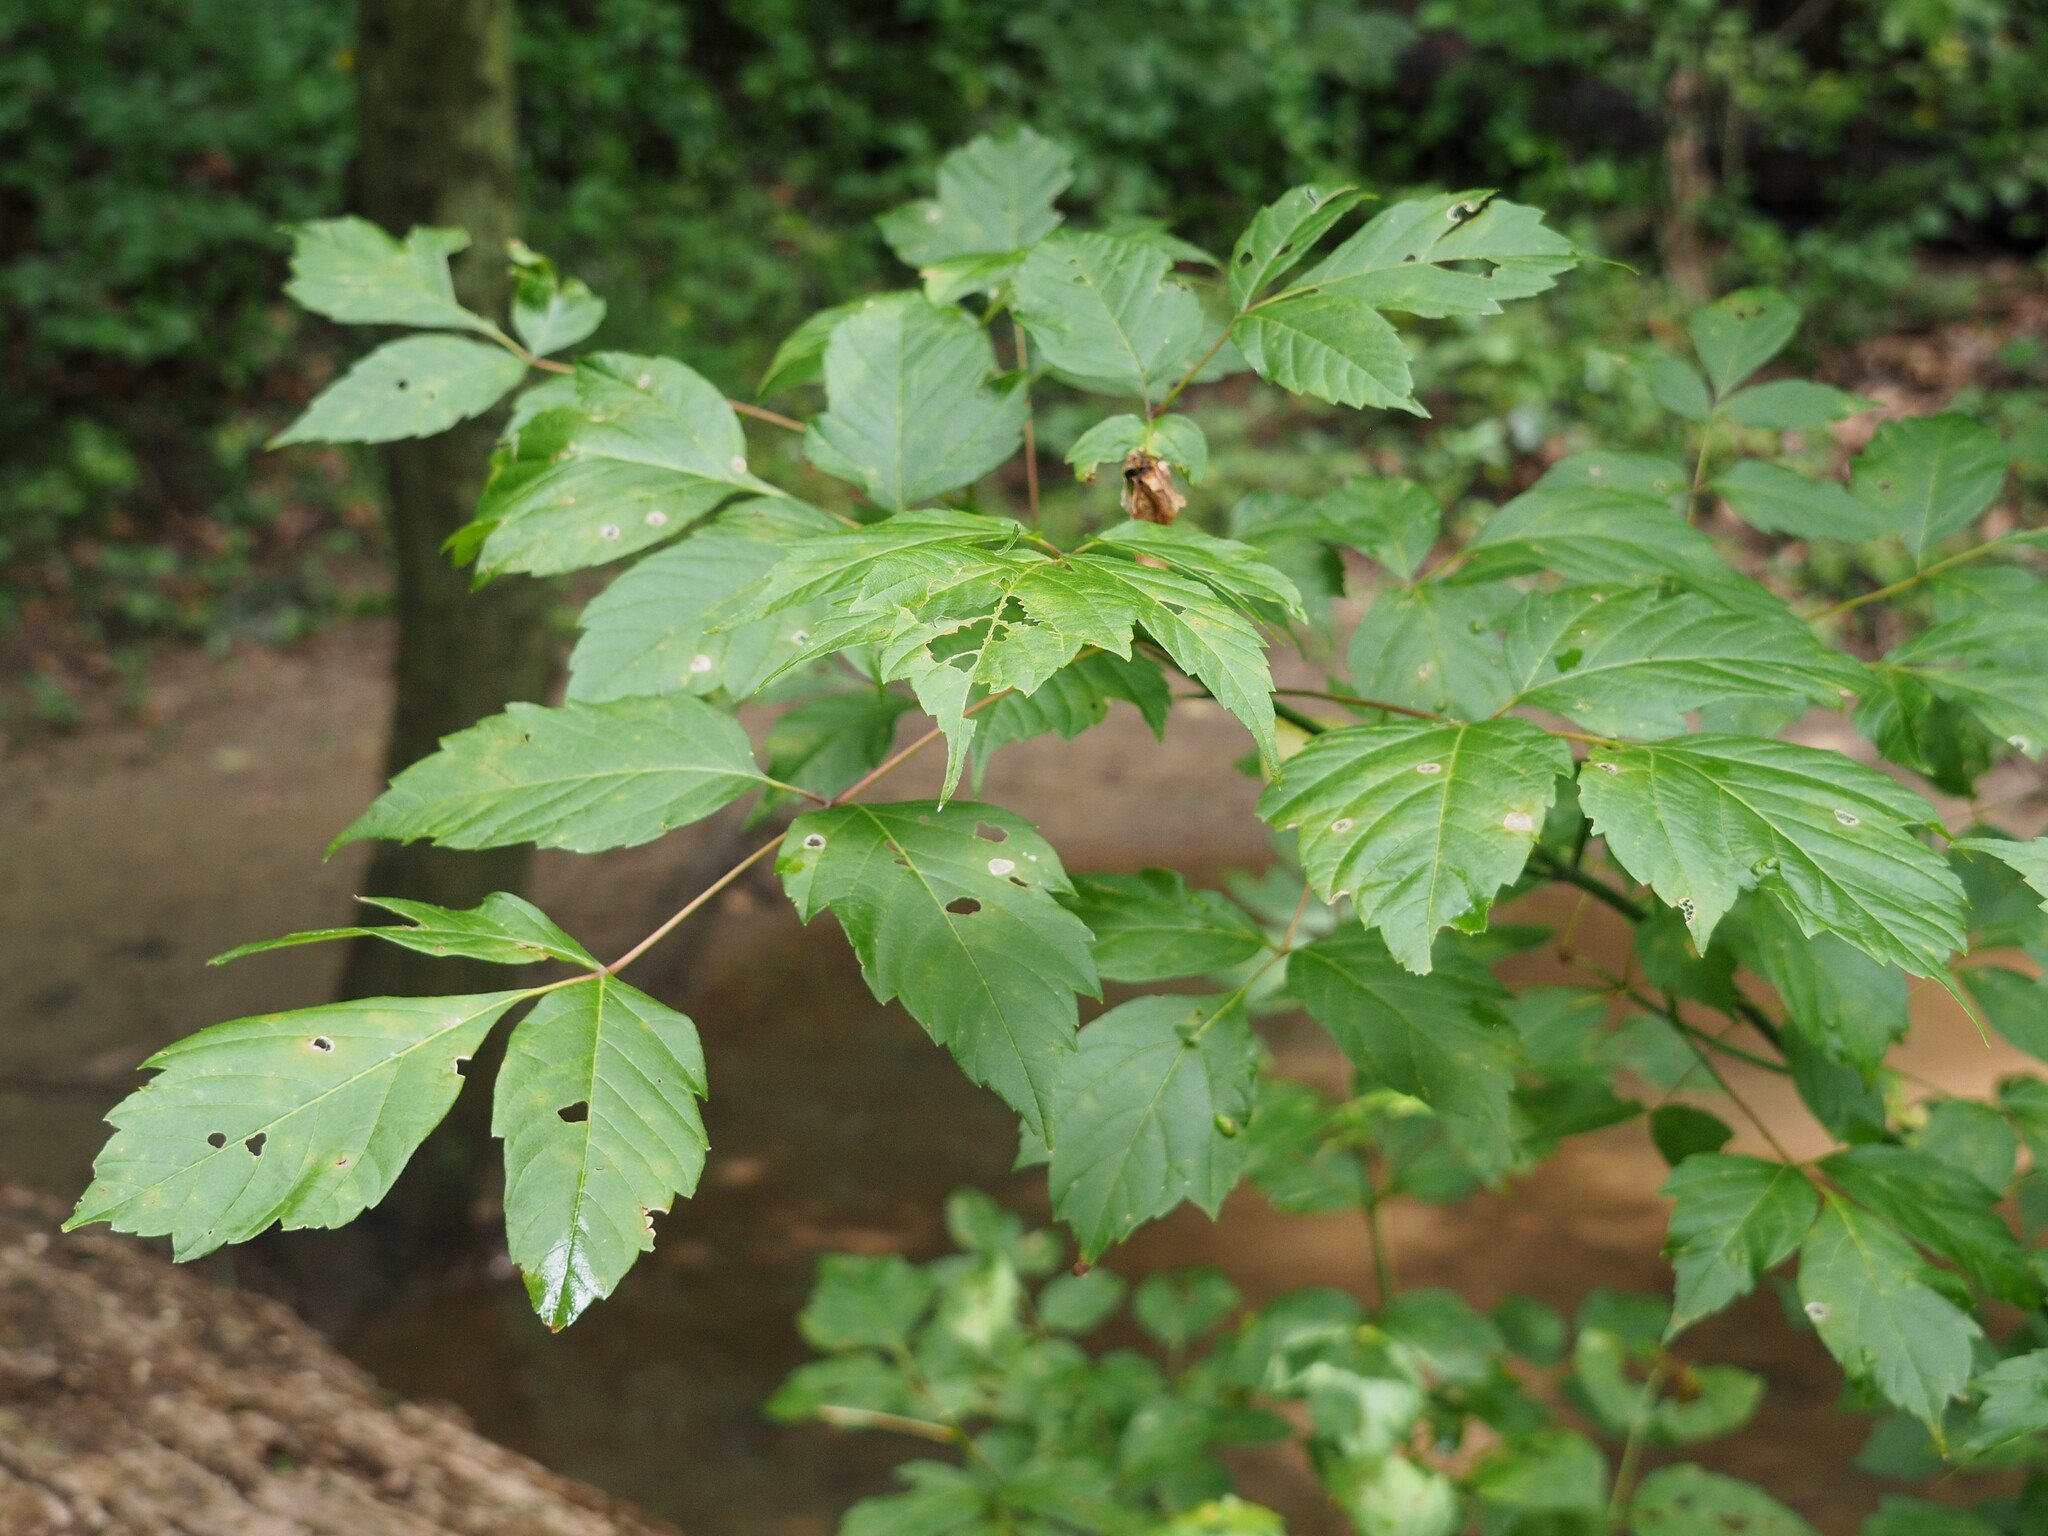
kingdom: Plantae
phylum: Tracheophyta
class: Magnoliopsida
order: Sapindales
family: Sapindaceae
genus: Acer
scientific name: Acer negundo
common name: Ashleaf maple
